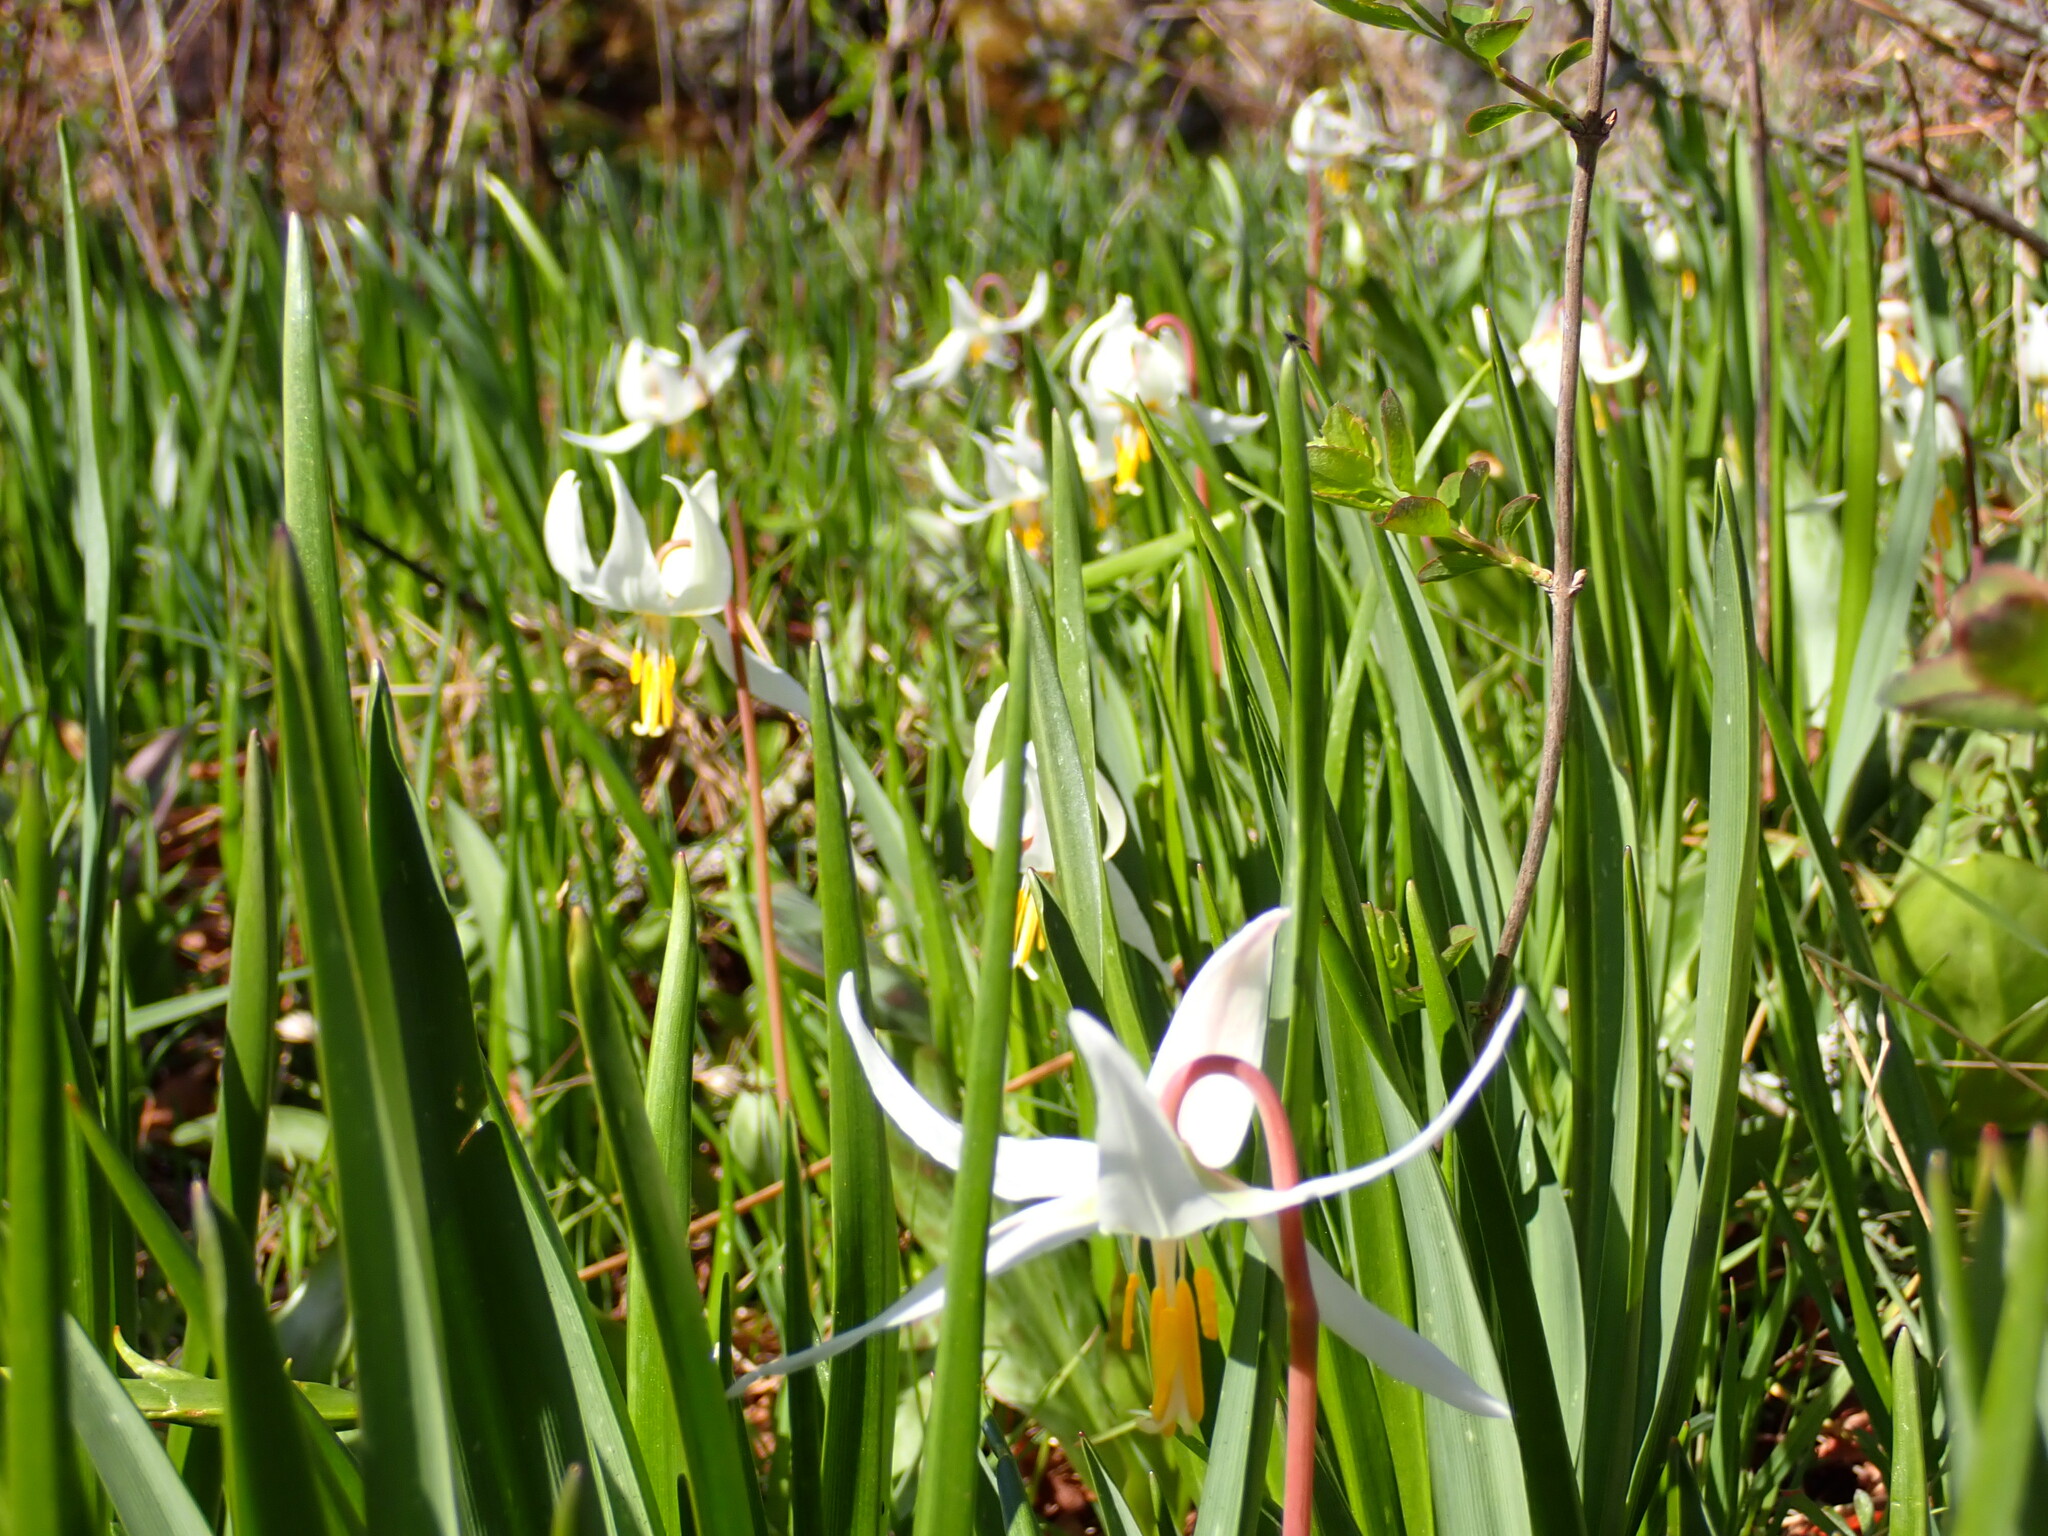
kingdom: Plantae
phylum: Tracheophyta
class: Liliopsida
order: Liliales
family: Liliaceae
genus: Erythronium
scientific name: Erythronium oregonum
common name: Giant adder's-tongue
